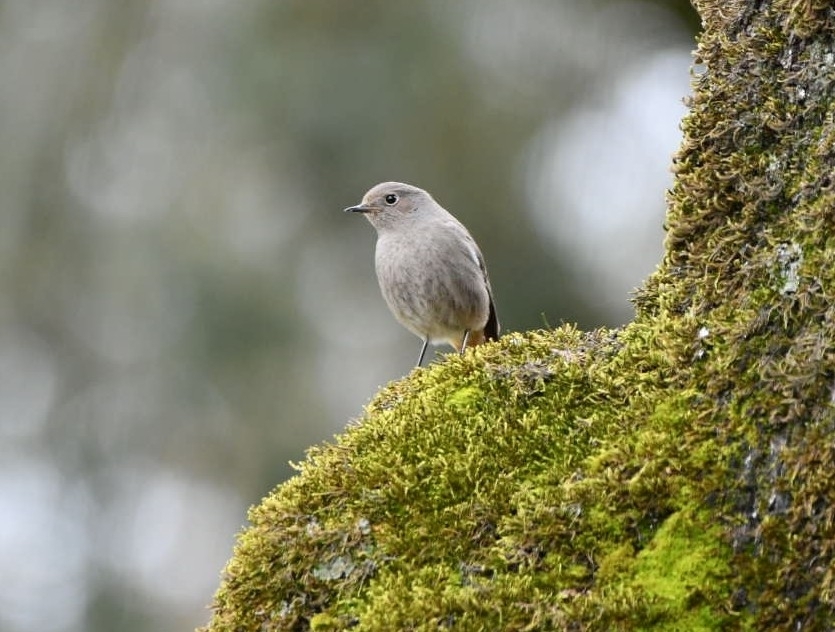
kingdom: Animalia
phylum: Chordata
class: Aves
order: Passeriformes
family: Muscicapidae
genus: Phoenicurus
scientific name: Phoenicurus ochruros
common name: Black redstart
